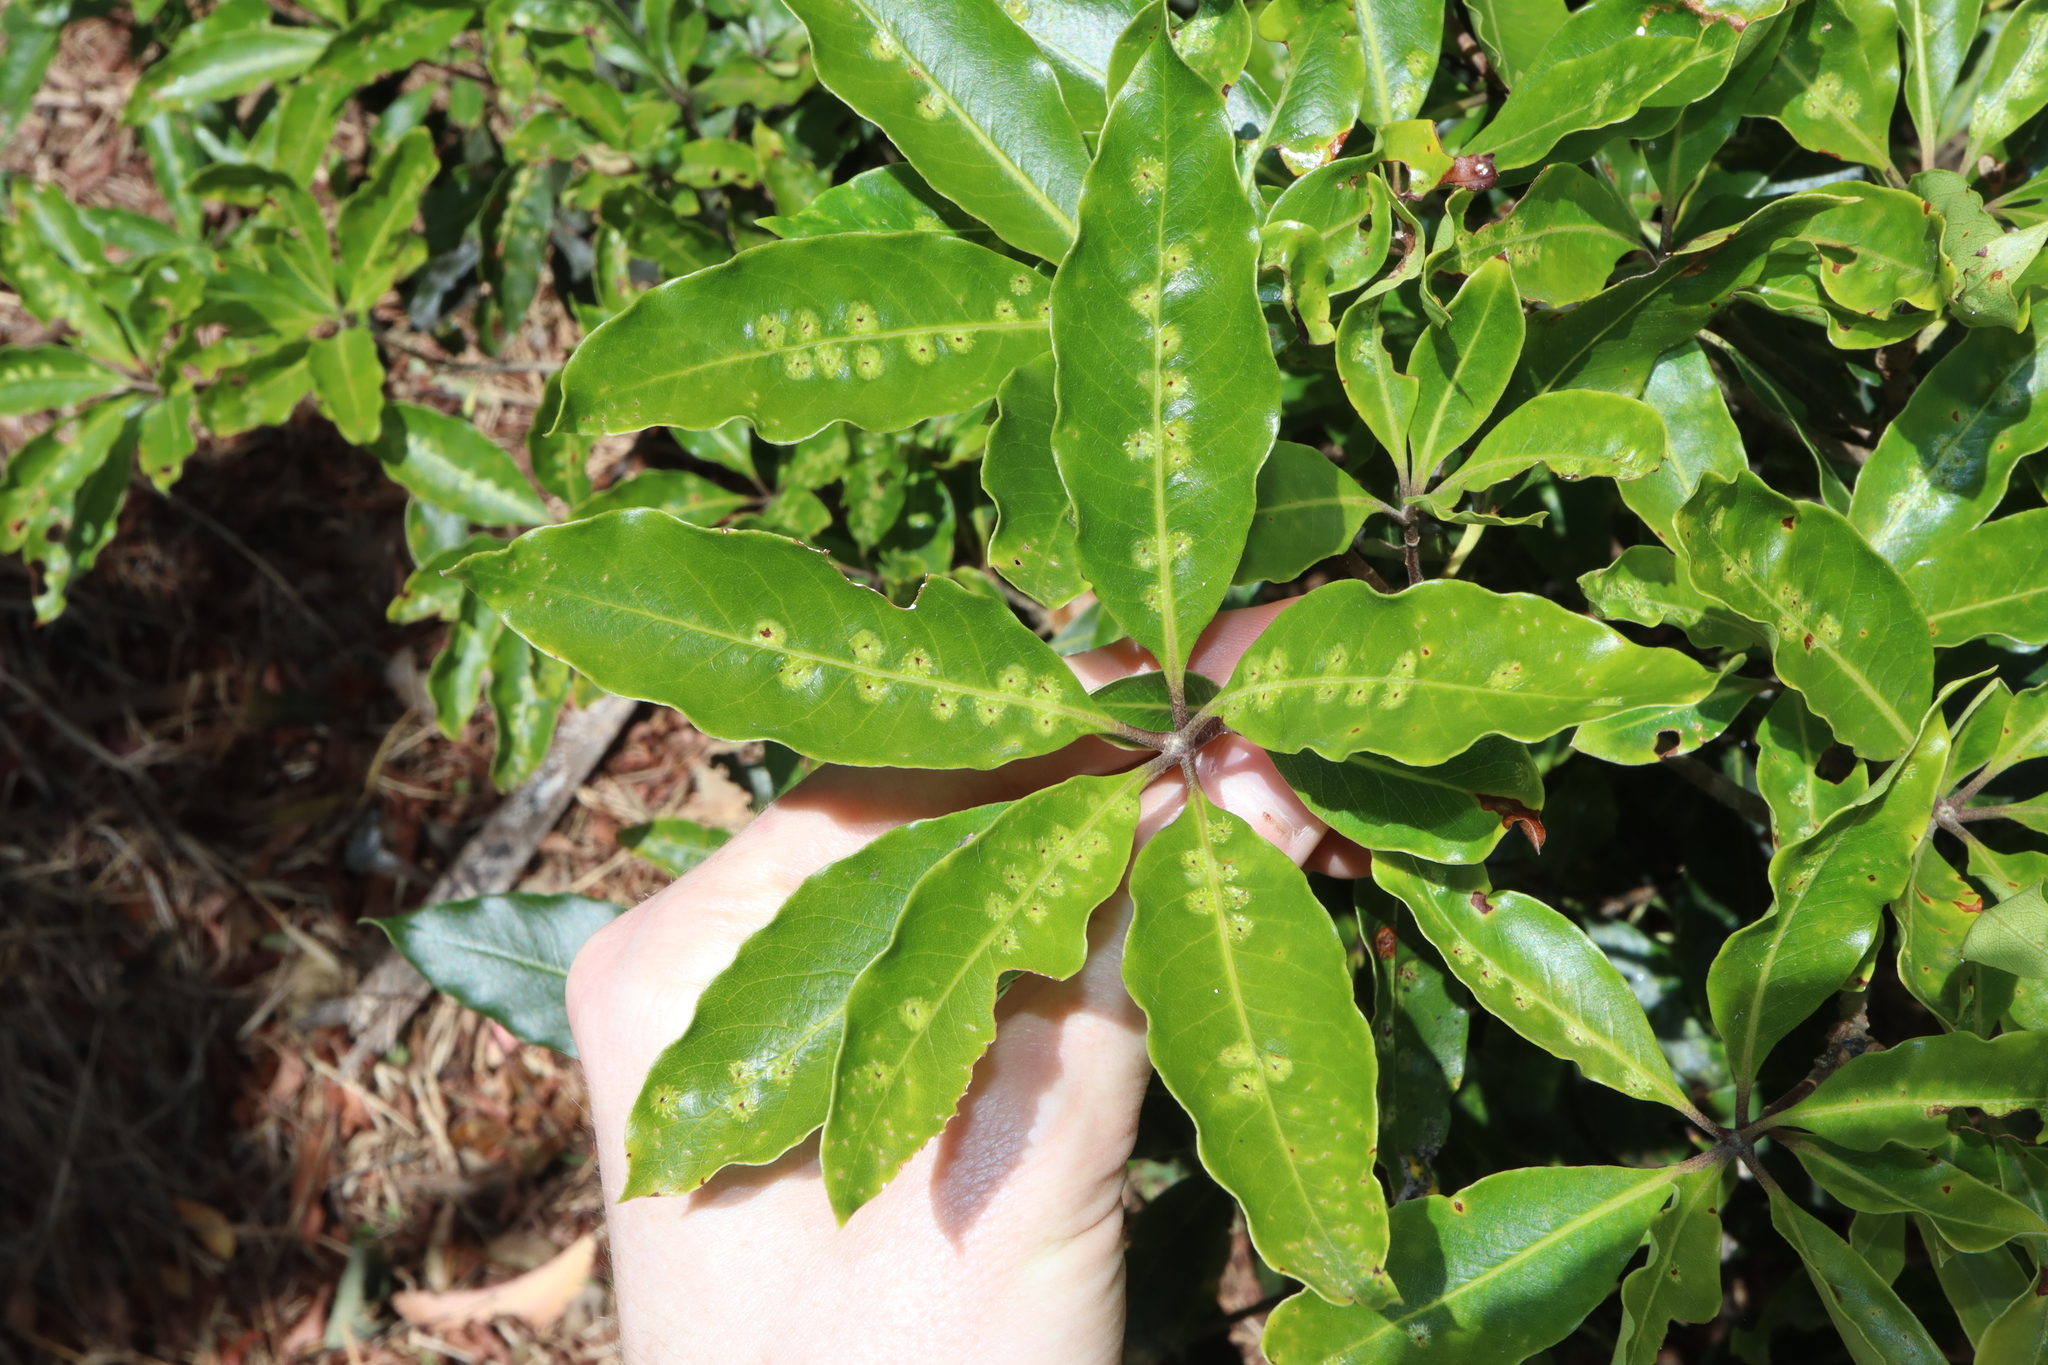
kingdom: Animalia
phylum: Arthropoda
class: Insecta
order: Diptera
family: Agromyzidae
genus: Phytoliriomyza
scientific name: Phytoliriomyza pittosporophylli
